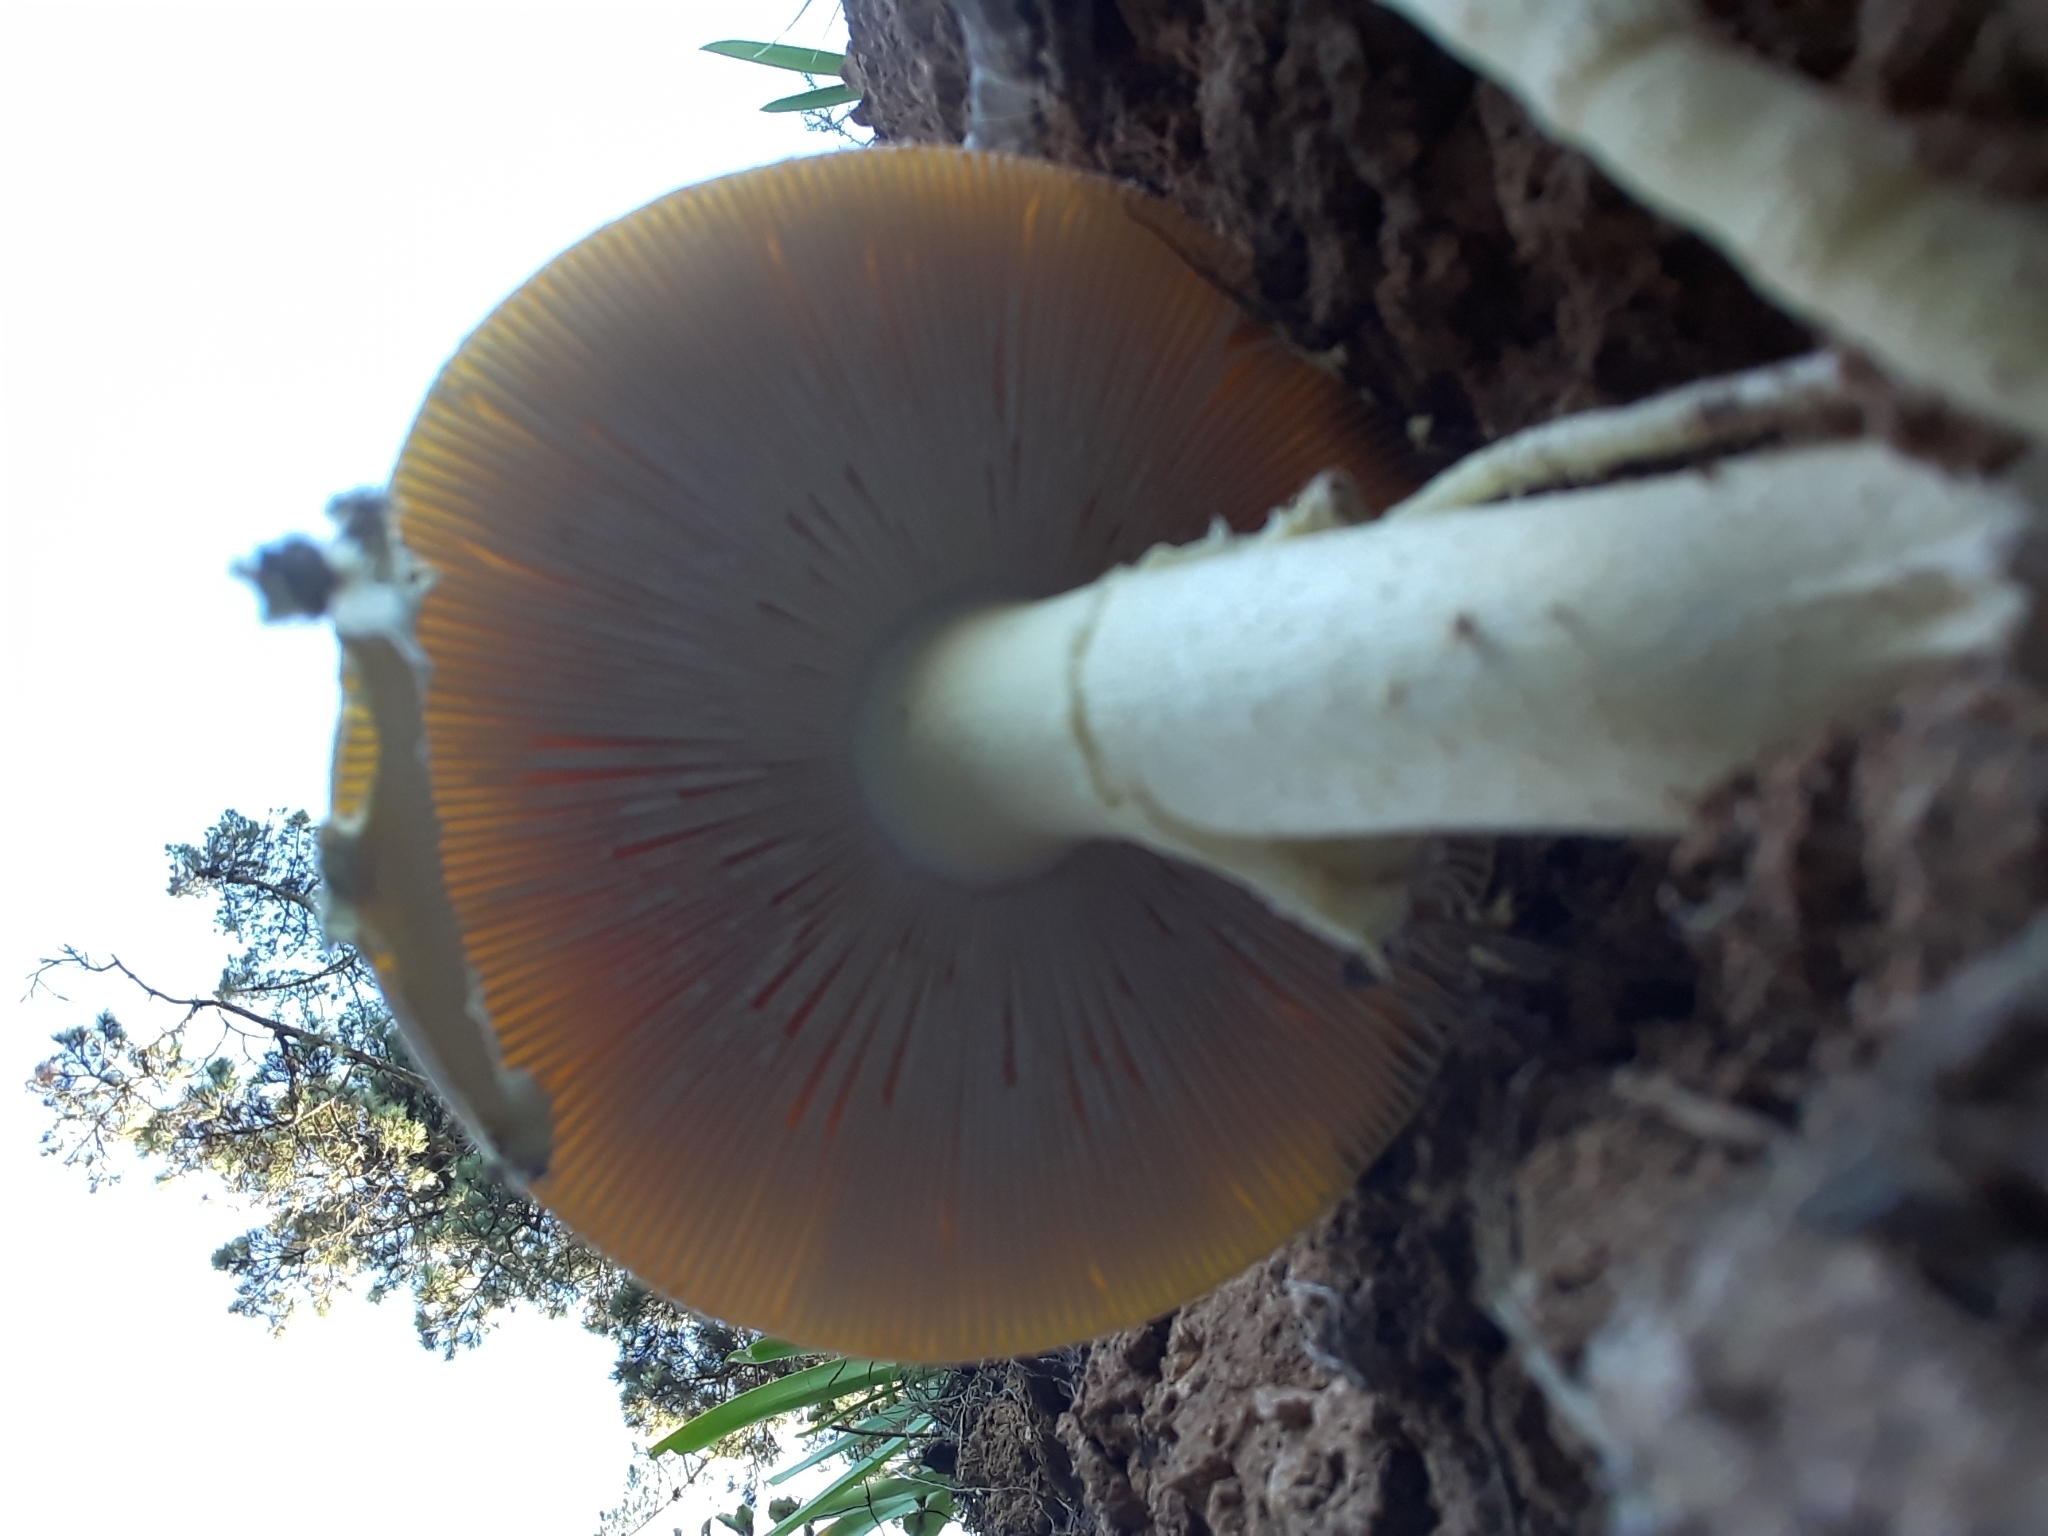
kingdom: Fungi
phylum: Basidiomycota
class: Agaricomycetes
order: Agaricales
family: Amanitaceae
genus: Amanita
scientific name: Amanita muscaria
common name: Fly agaric
